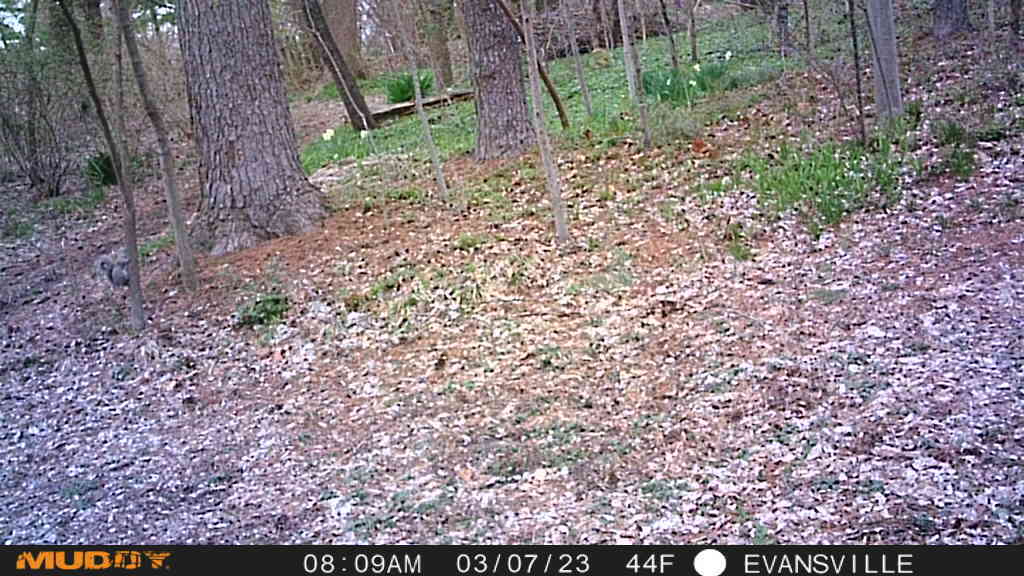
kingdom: Animalia
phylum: Chordata
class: Mammalia
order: Rodentia
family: Sciuridae
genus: Sciurus
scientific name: Sciurus carolinensis
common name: Eastern gray squirrel
